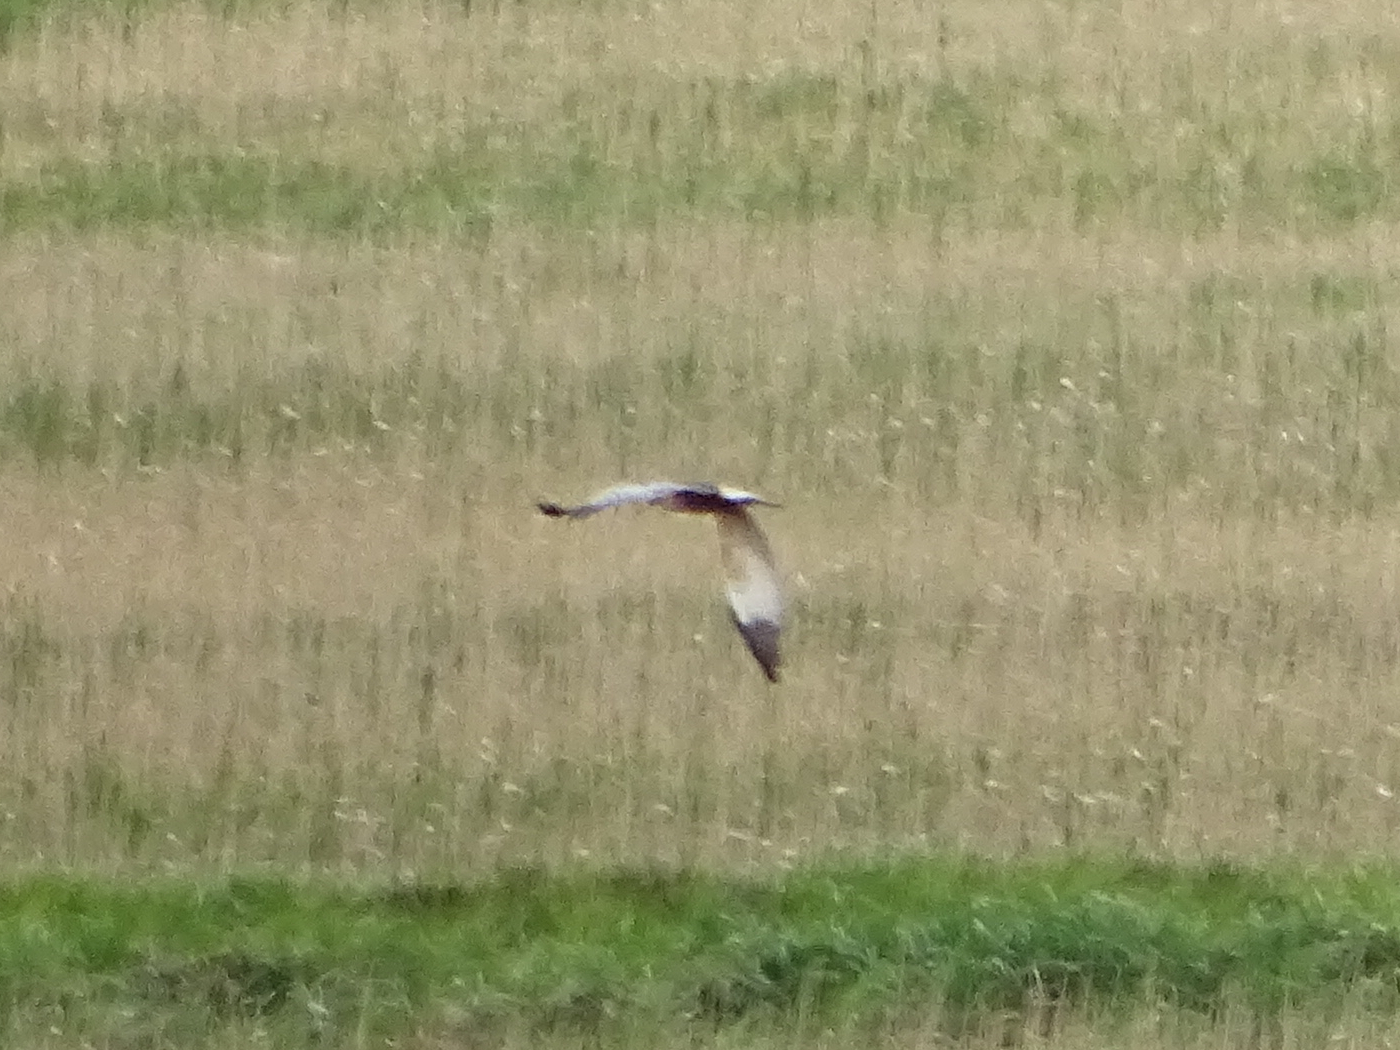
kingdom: Animalia
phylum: Chordata
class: Aves
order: Accipitriformes
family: Accipitridae
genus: Circus
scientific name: Circus aeruginosus
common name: Western marsh harrier
